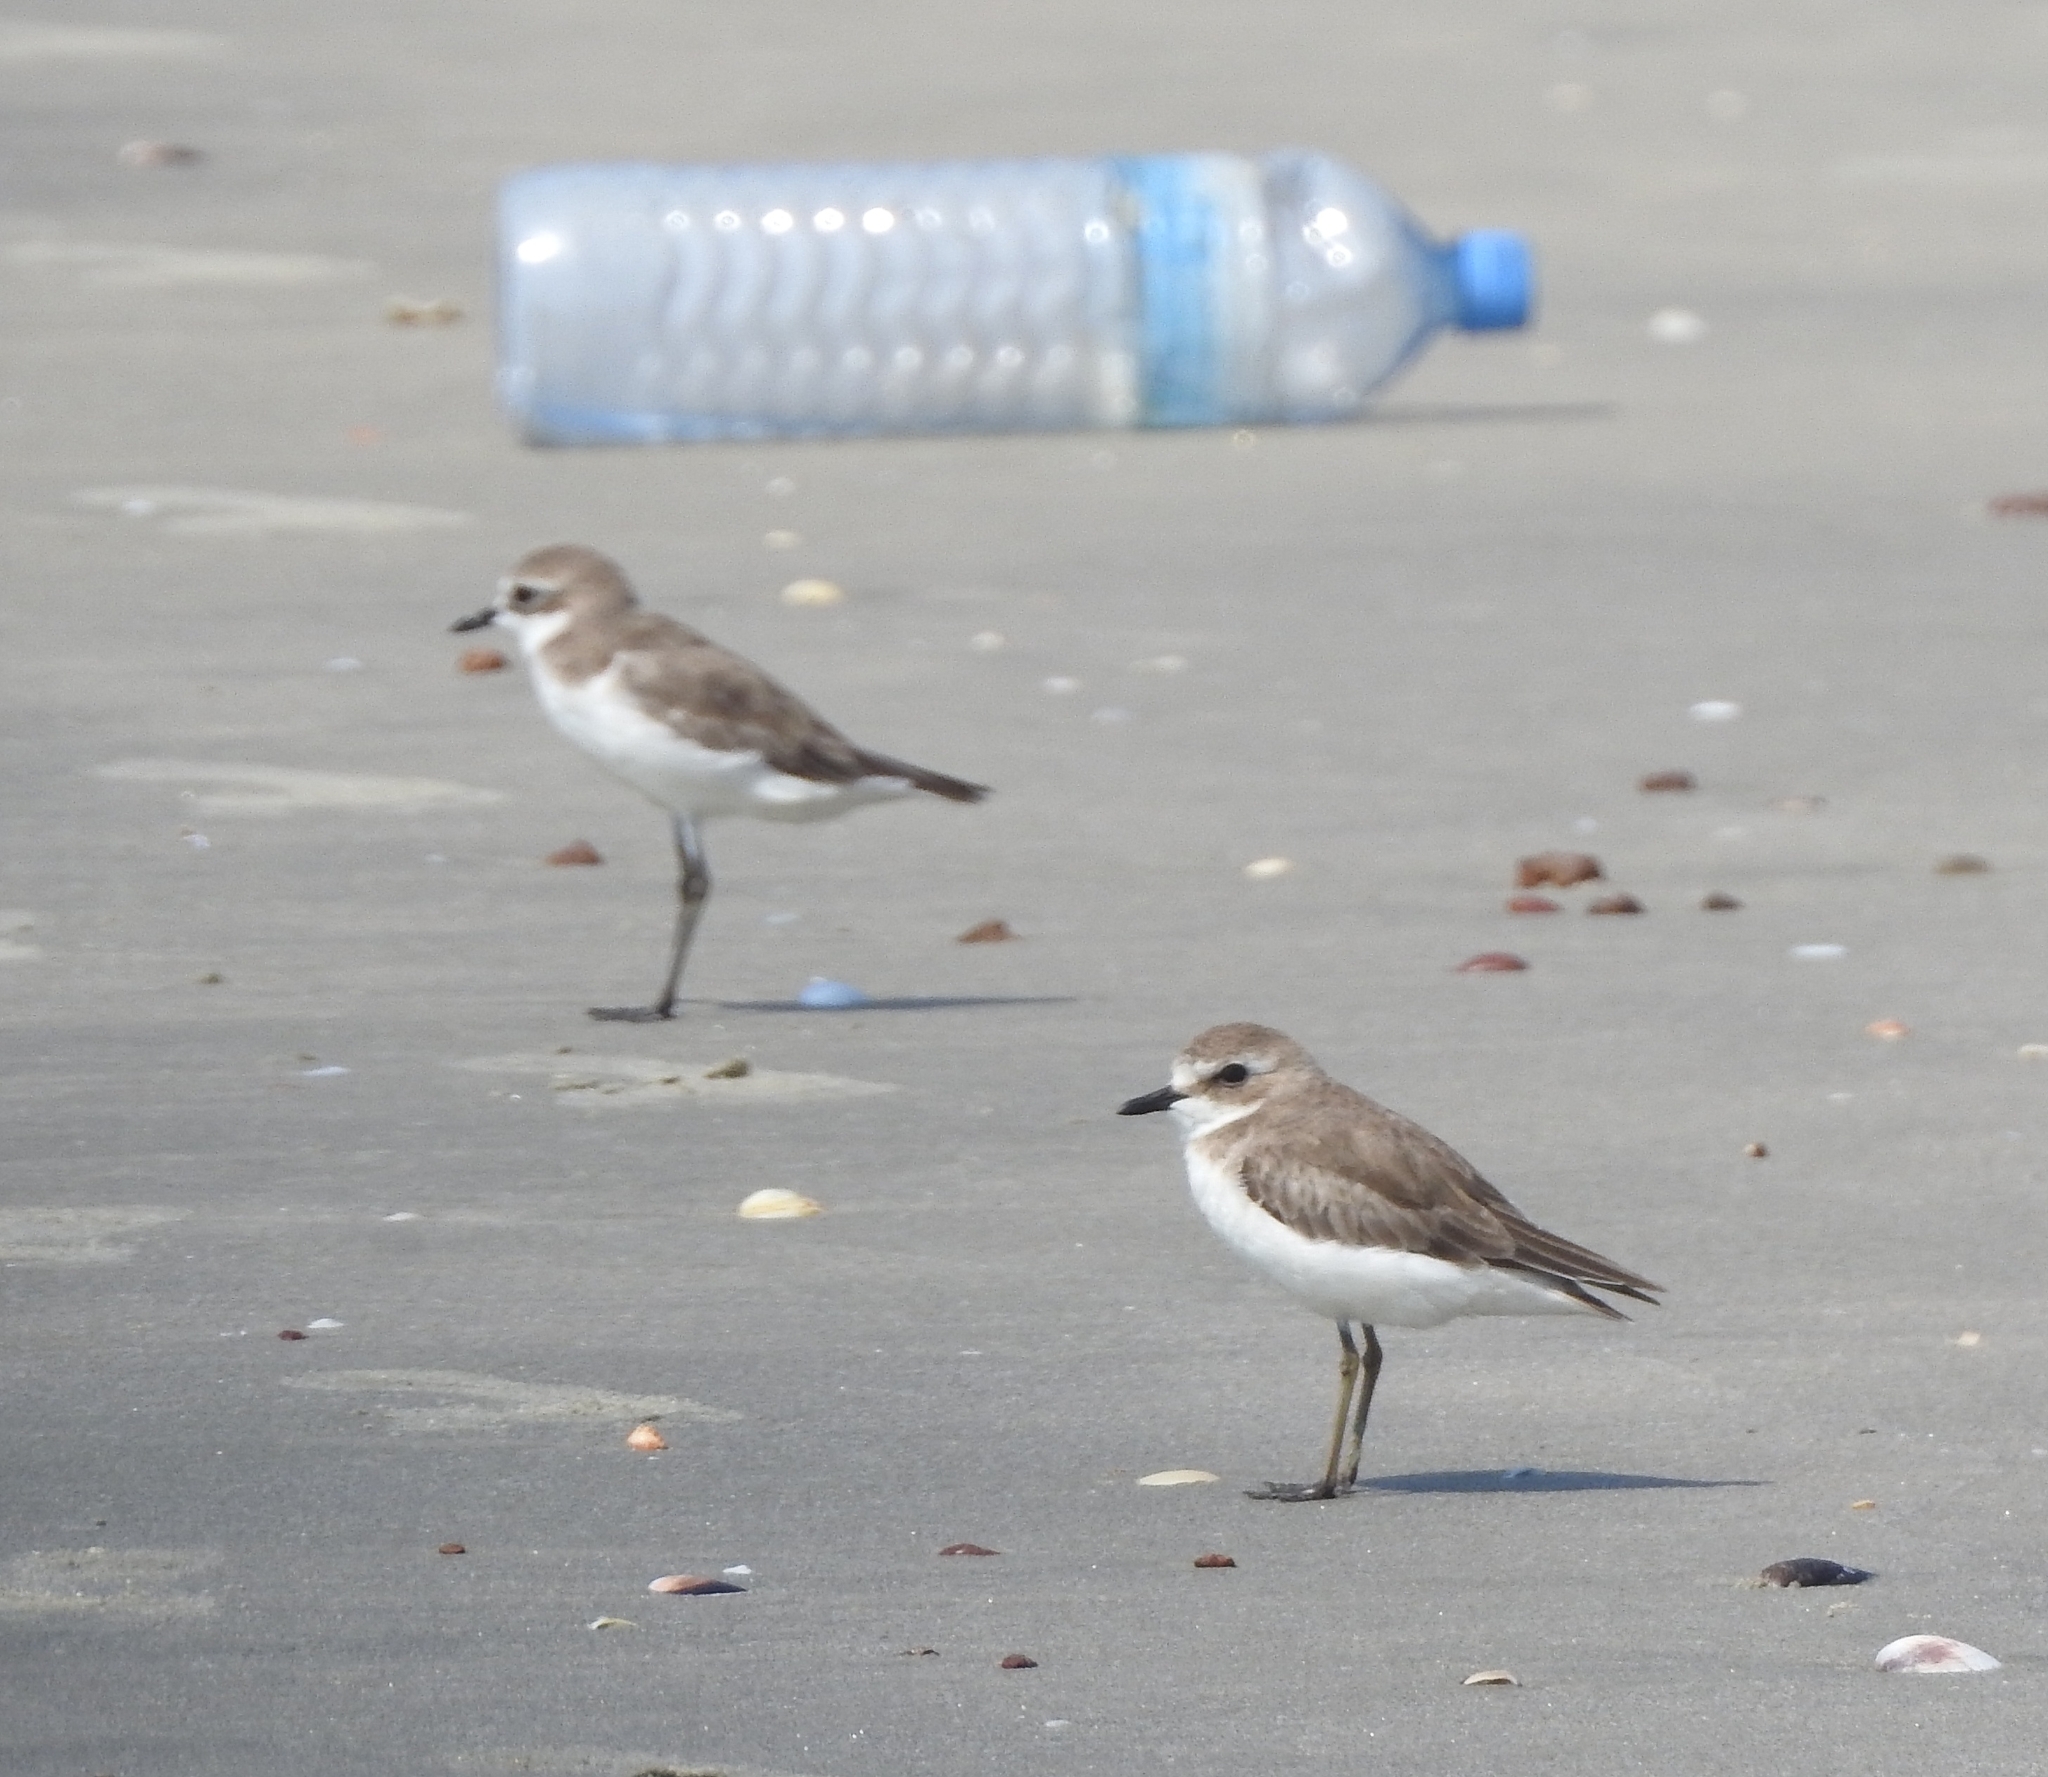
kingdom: Animalia
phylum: Chordata
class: Aves
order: Charadriiformes
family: Charadriidae
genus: Anarhynchus
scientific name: Anarhynchus
